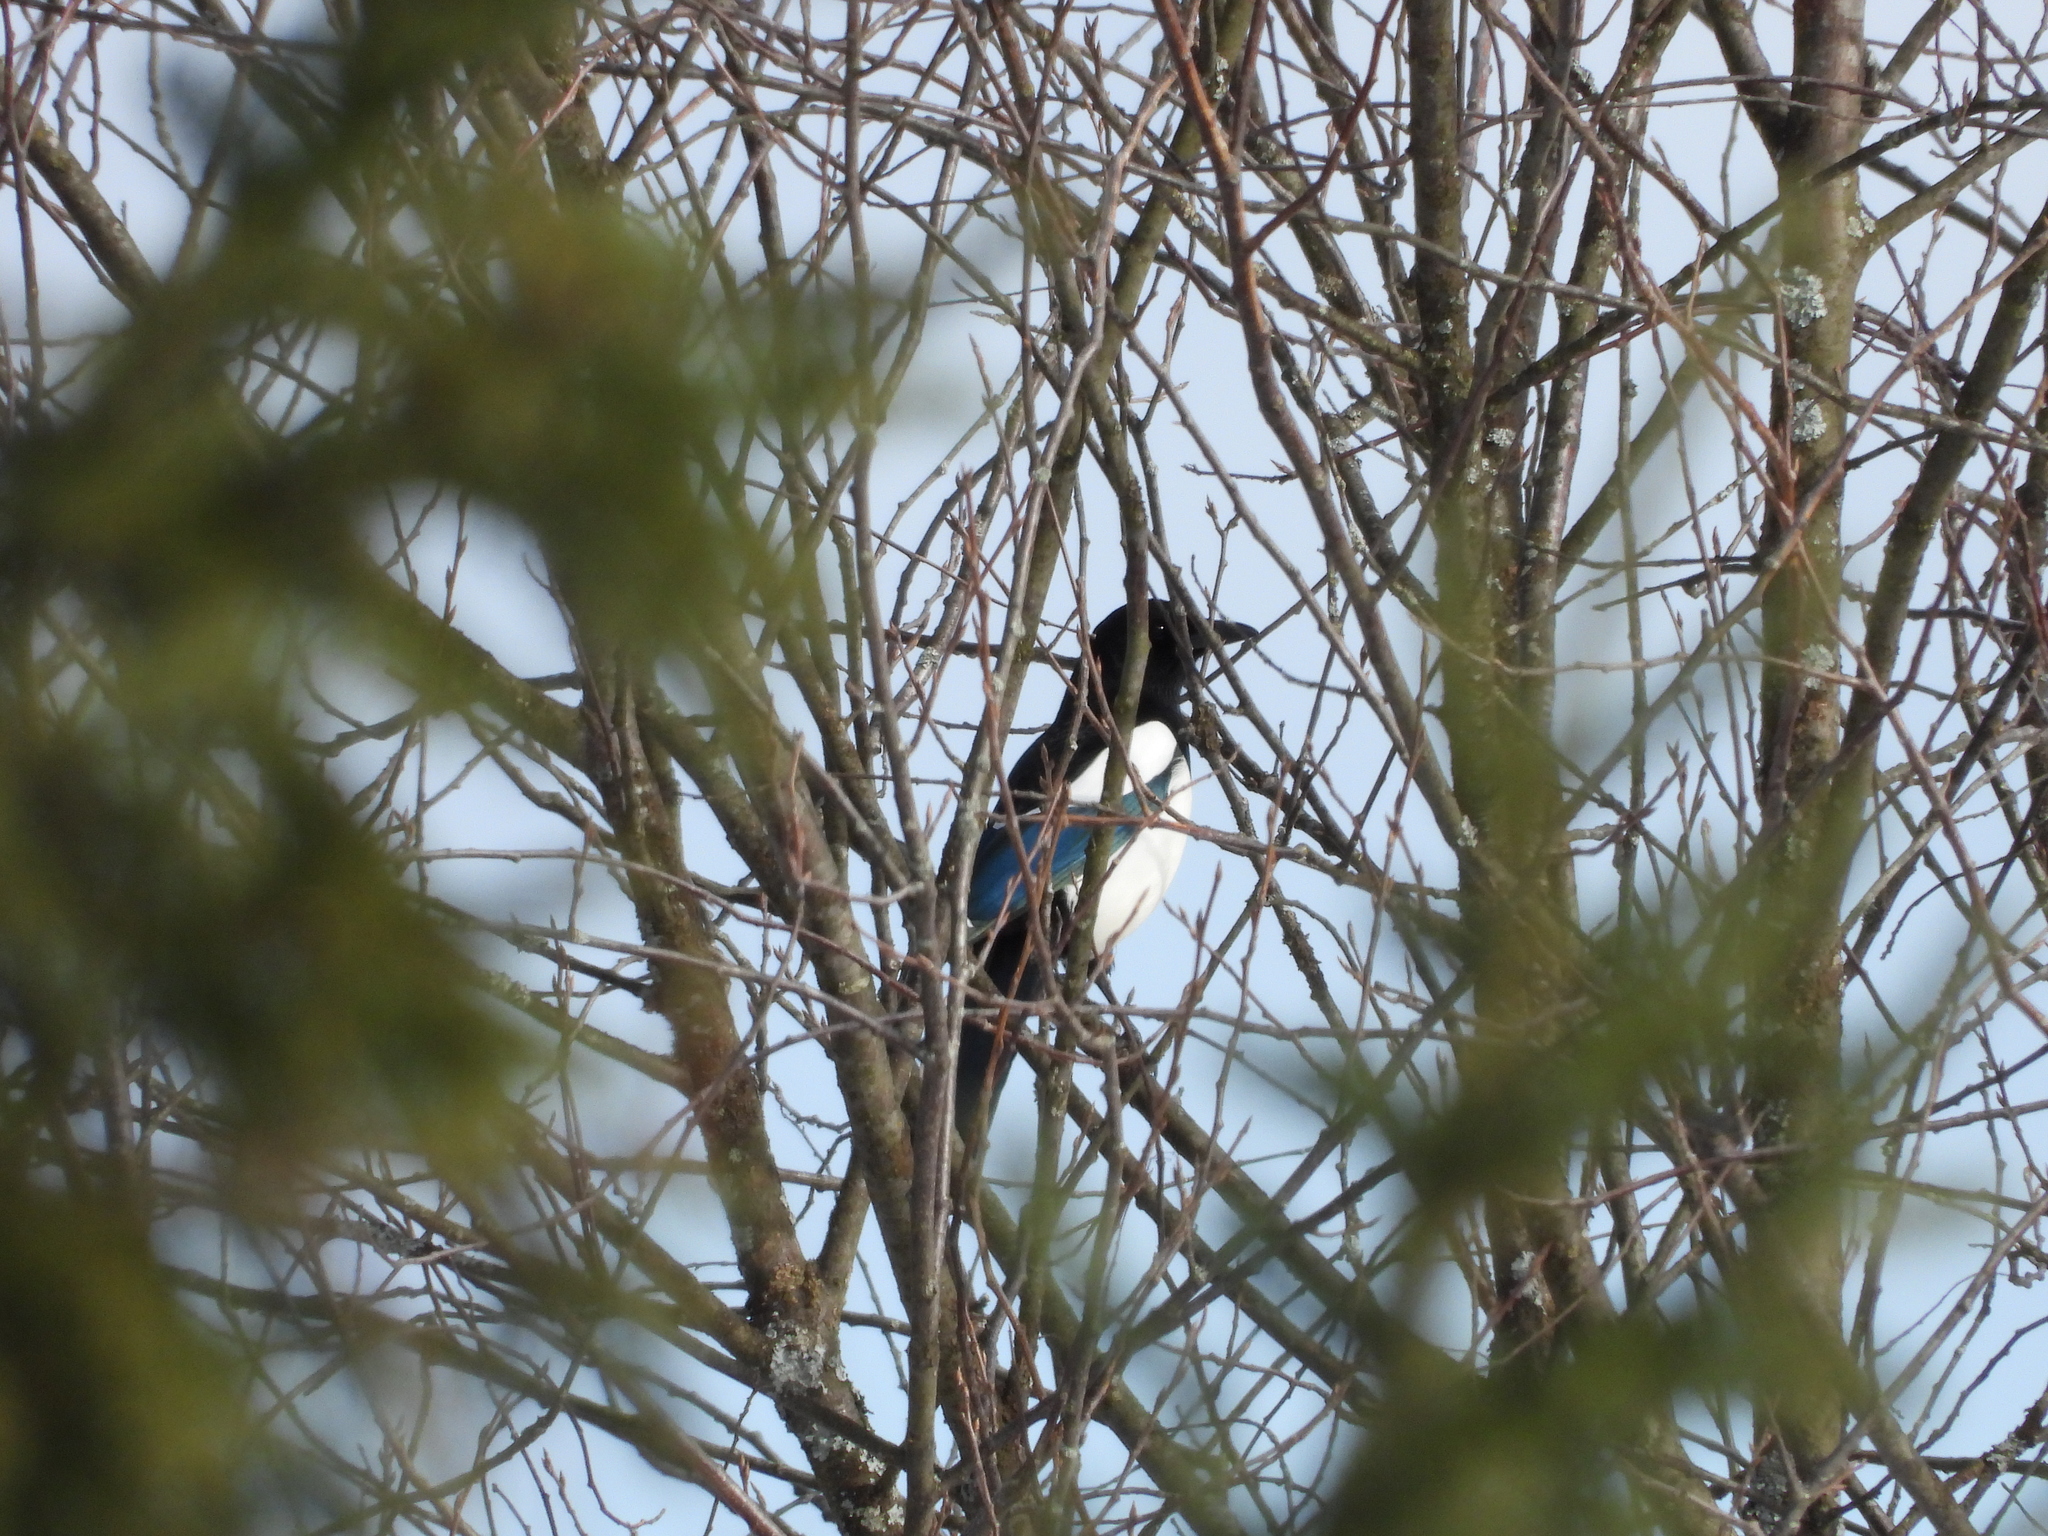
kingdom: Animalia
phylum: Chordata
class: Aves
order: Passeriformes
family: Corvidae
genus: Pica
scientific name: Pica pica
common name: Eurasian magpie
